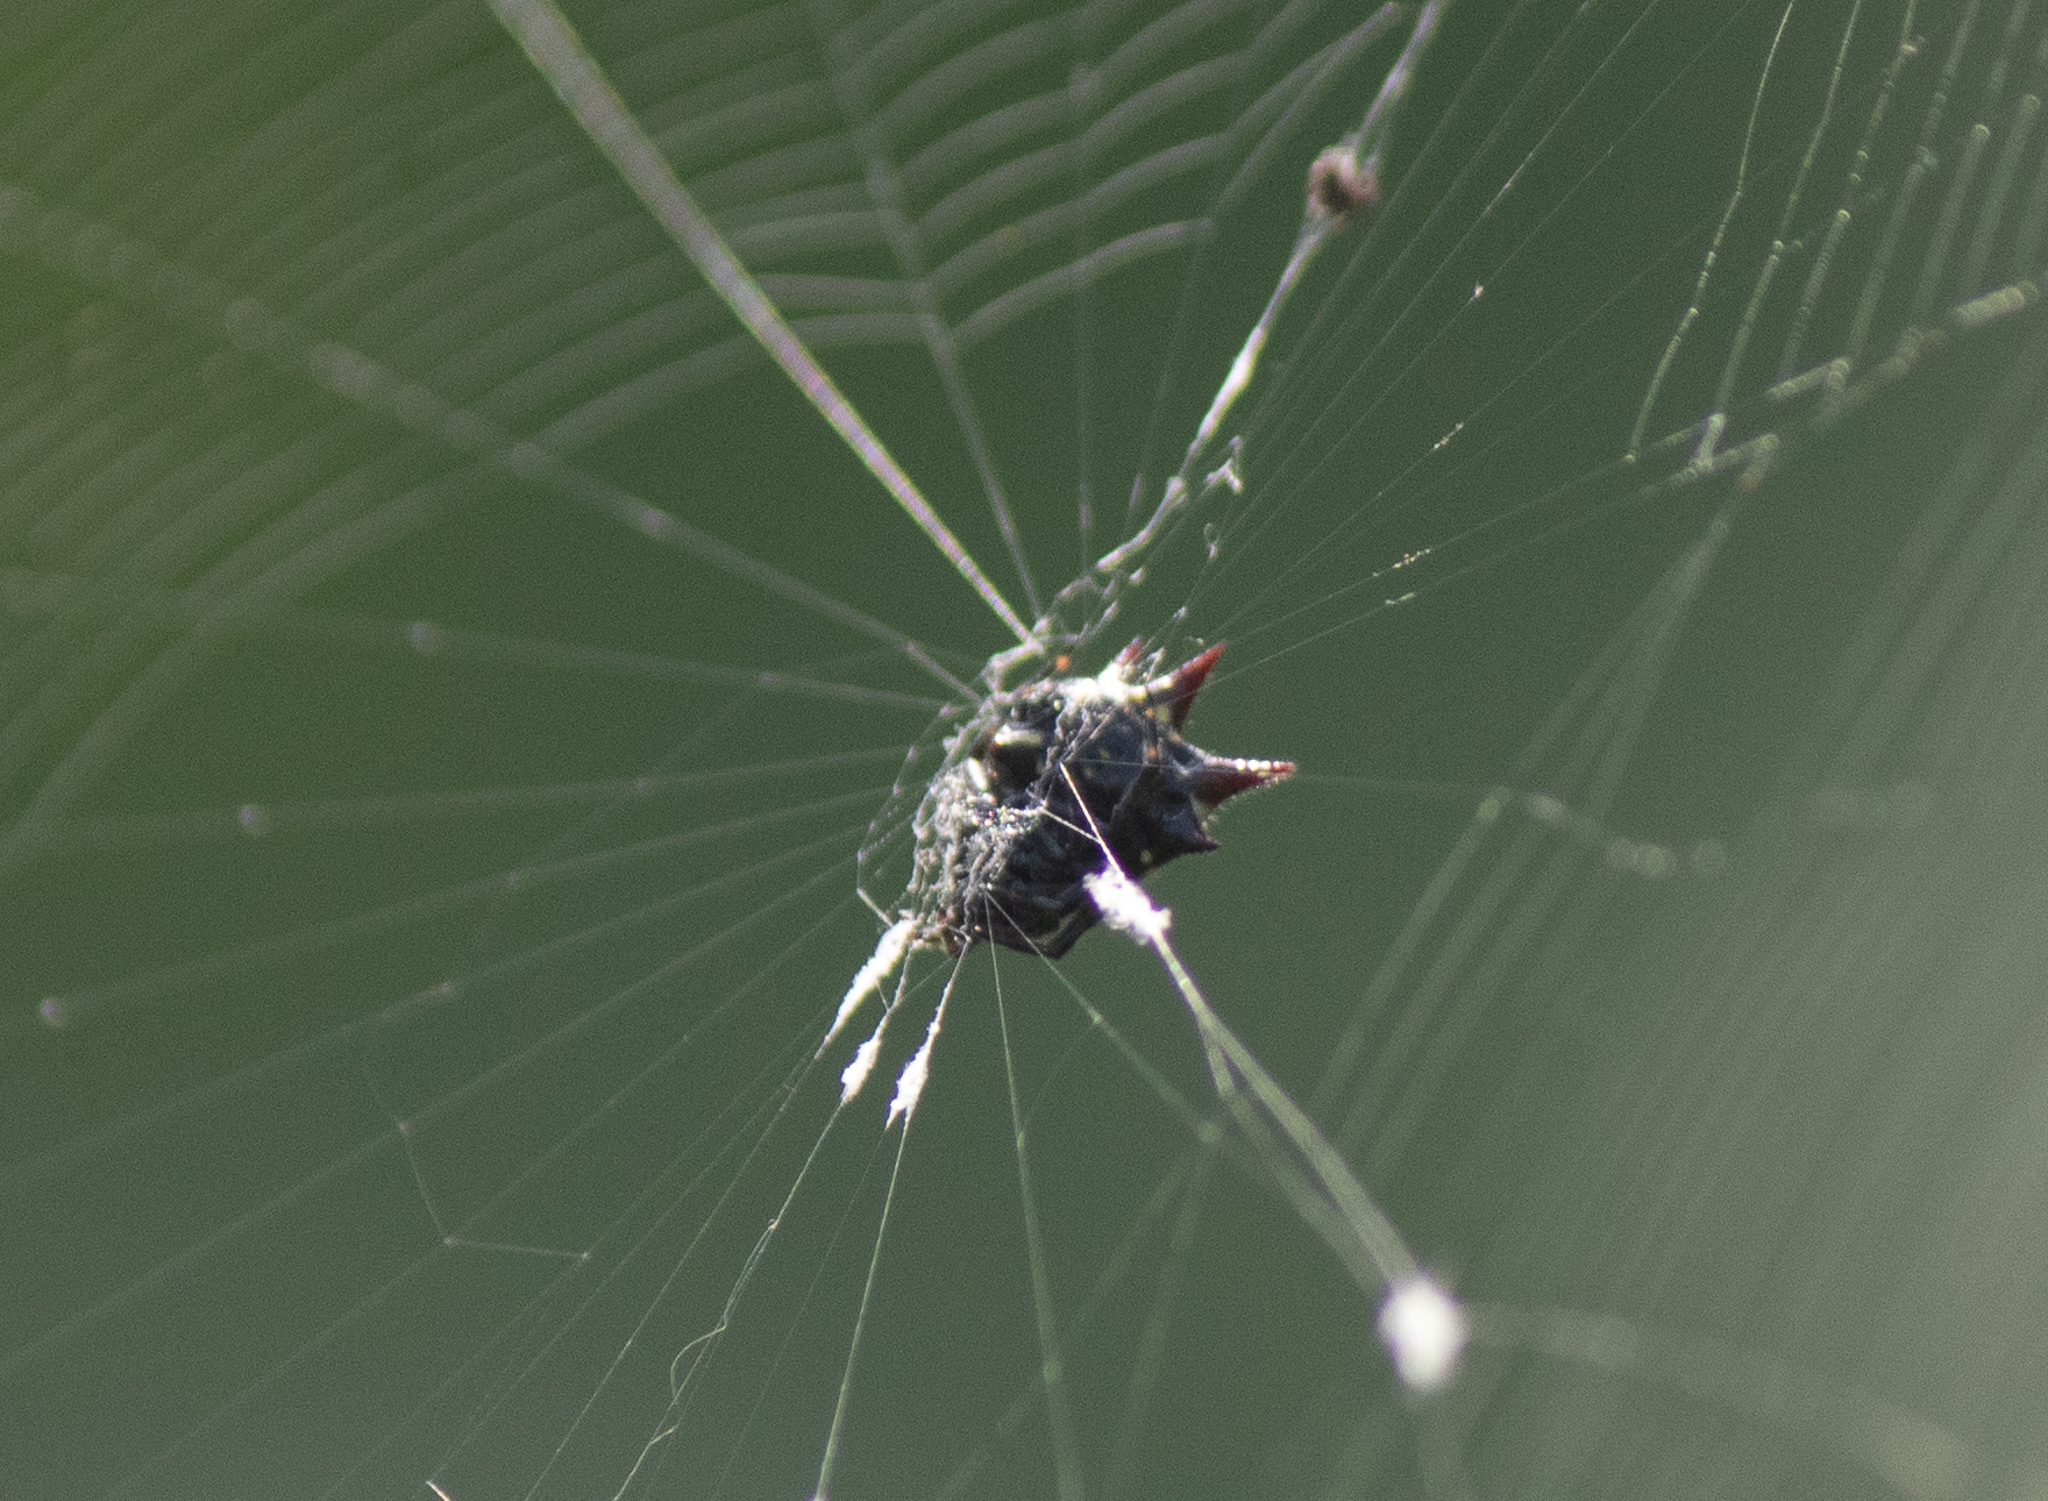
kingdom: Animalia
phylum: Arthropoda
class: Arachnida
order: Araneae
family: Araneidae
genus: Gasteracantha
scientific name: Gasteracantha cancriformis
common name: Orb weavers
